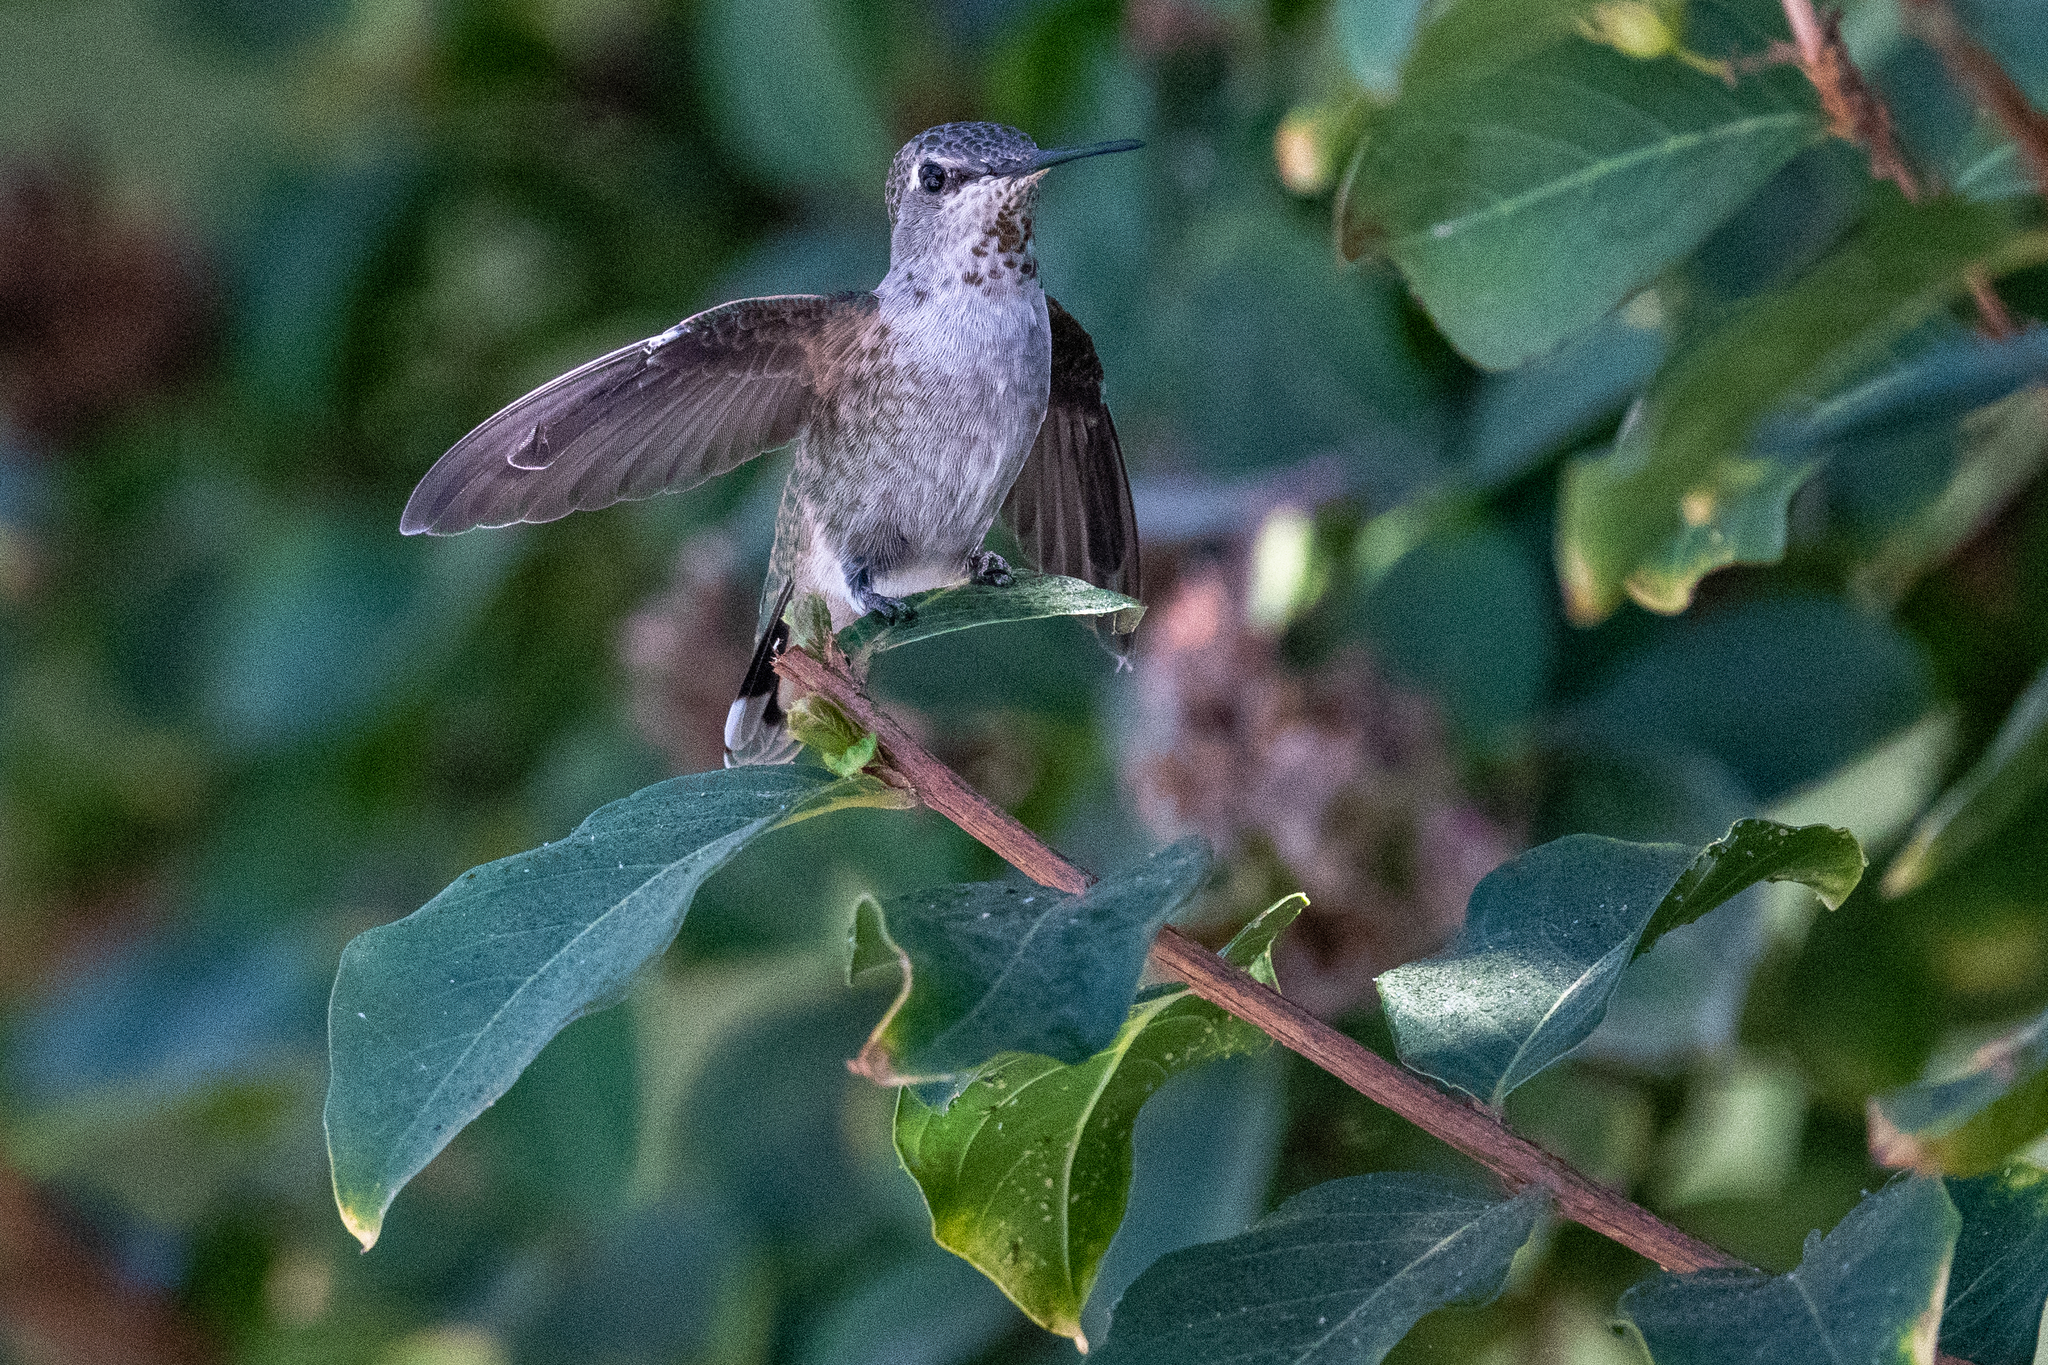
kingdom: Animalia
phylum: Chordata
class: Aves
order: Apodiformes
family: Trochilidae
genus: Calypte
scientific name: Calypte anna
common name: Anna's hummingbird
